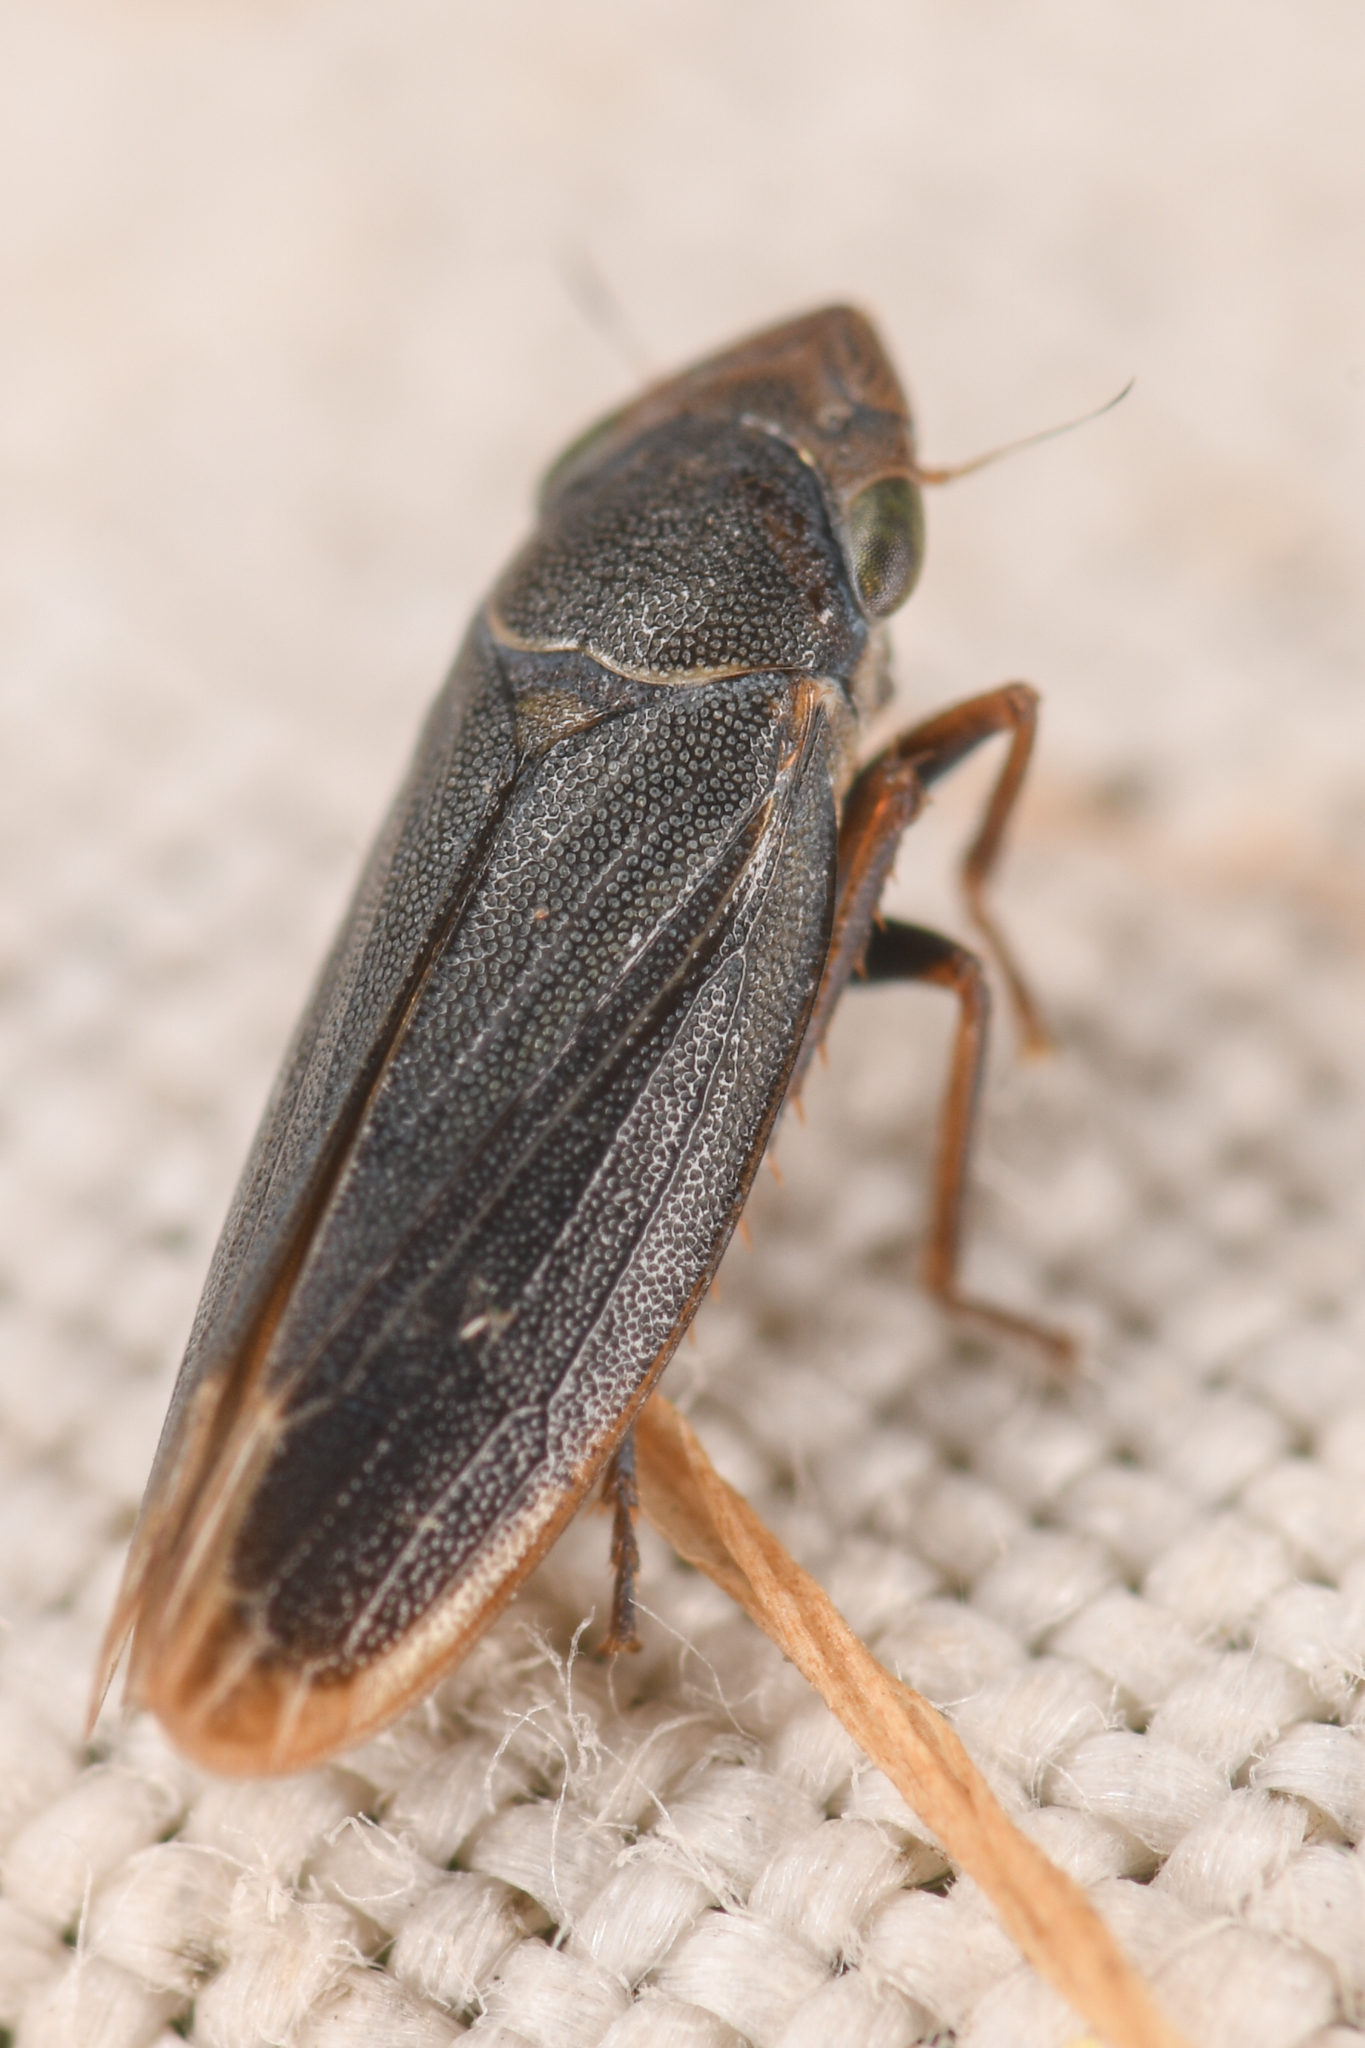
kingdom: Animalia
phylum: Arthropoda
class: Insecta
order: Hemiptera
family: Cicadellidae
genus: Helochara
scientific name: Helochara communis
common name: Bog leafhopper
